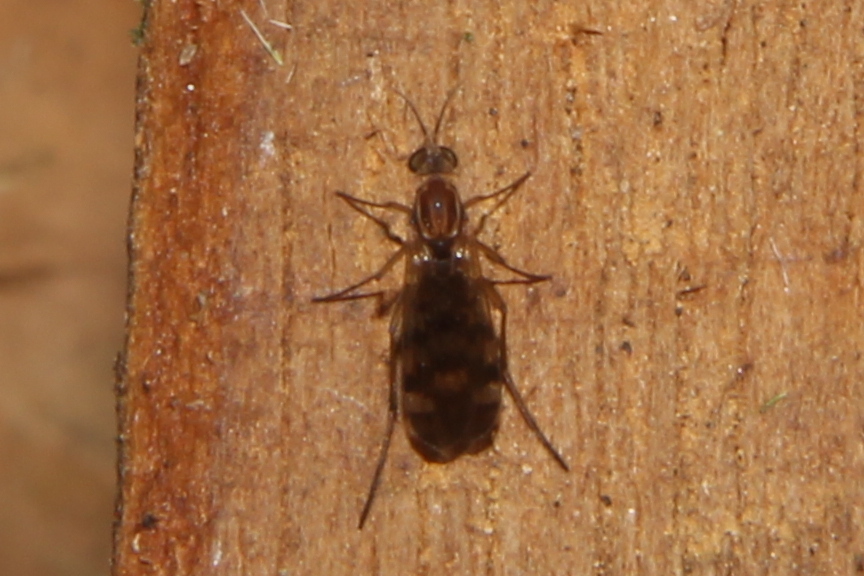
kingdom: Animalia
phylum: Arthropoda
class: Insecta
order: Diptera
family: Anisopodidae
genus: Sylvicola
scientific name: Sylvicola notatus
